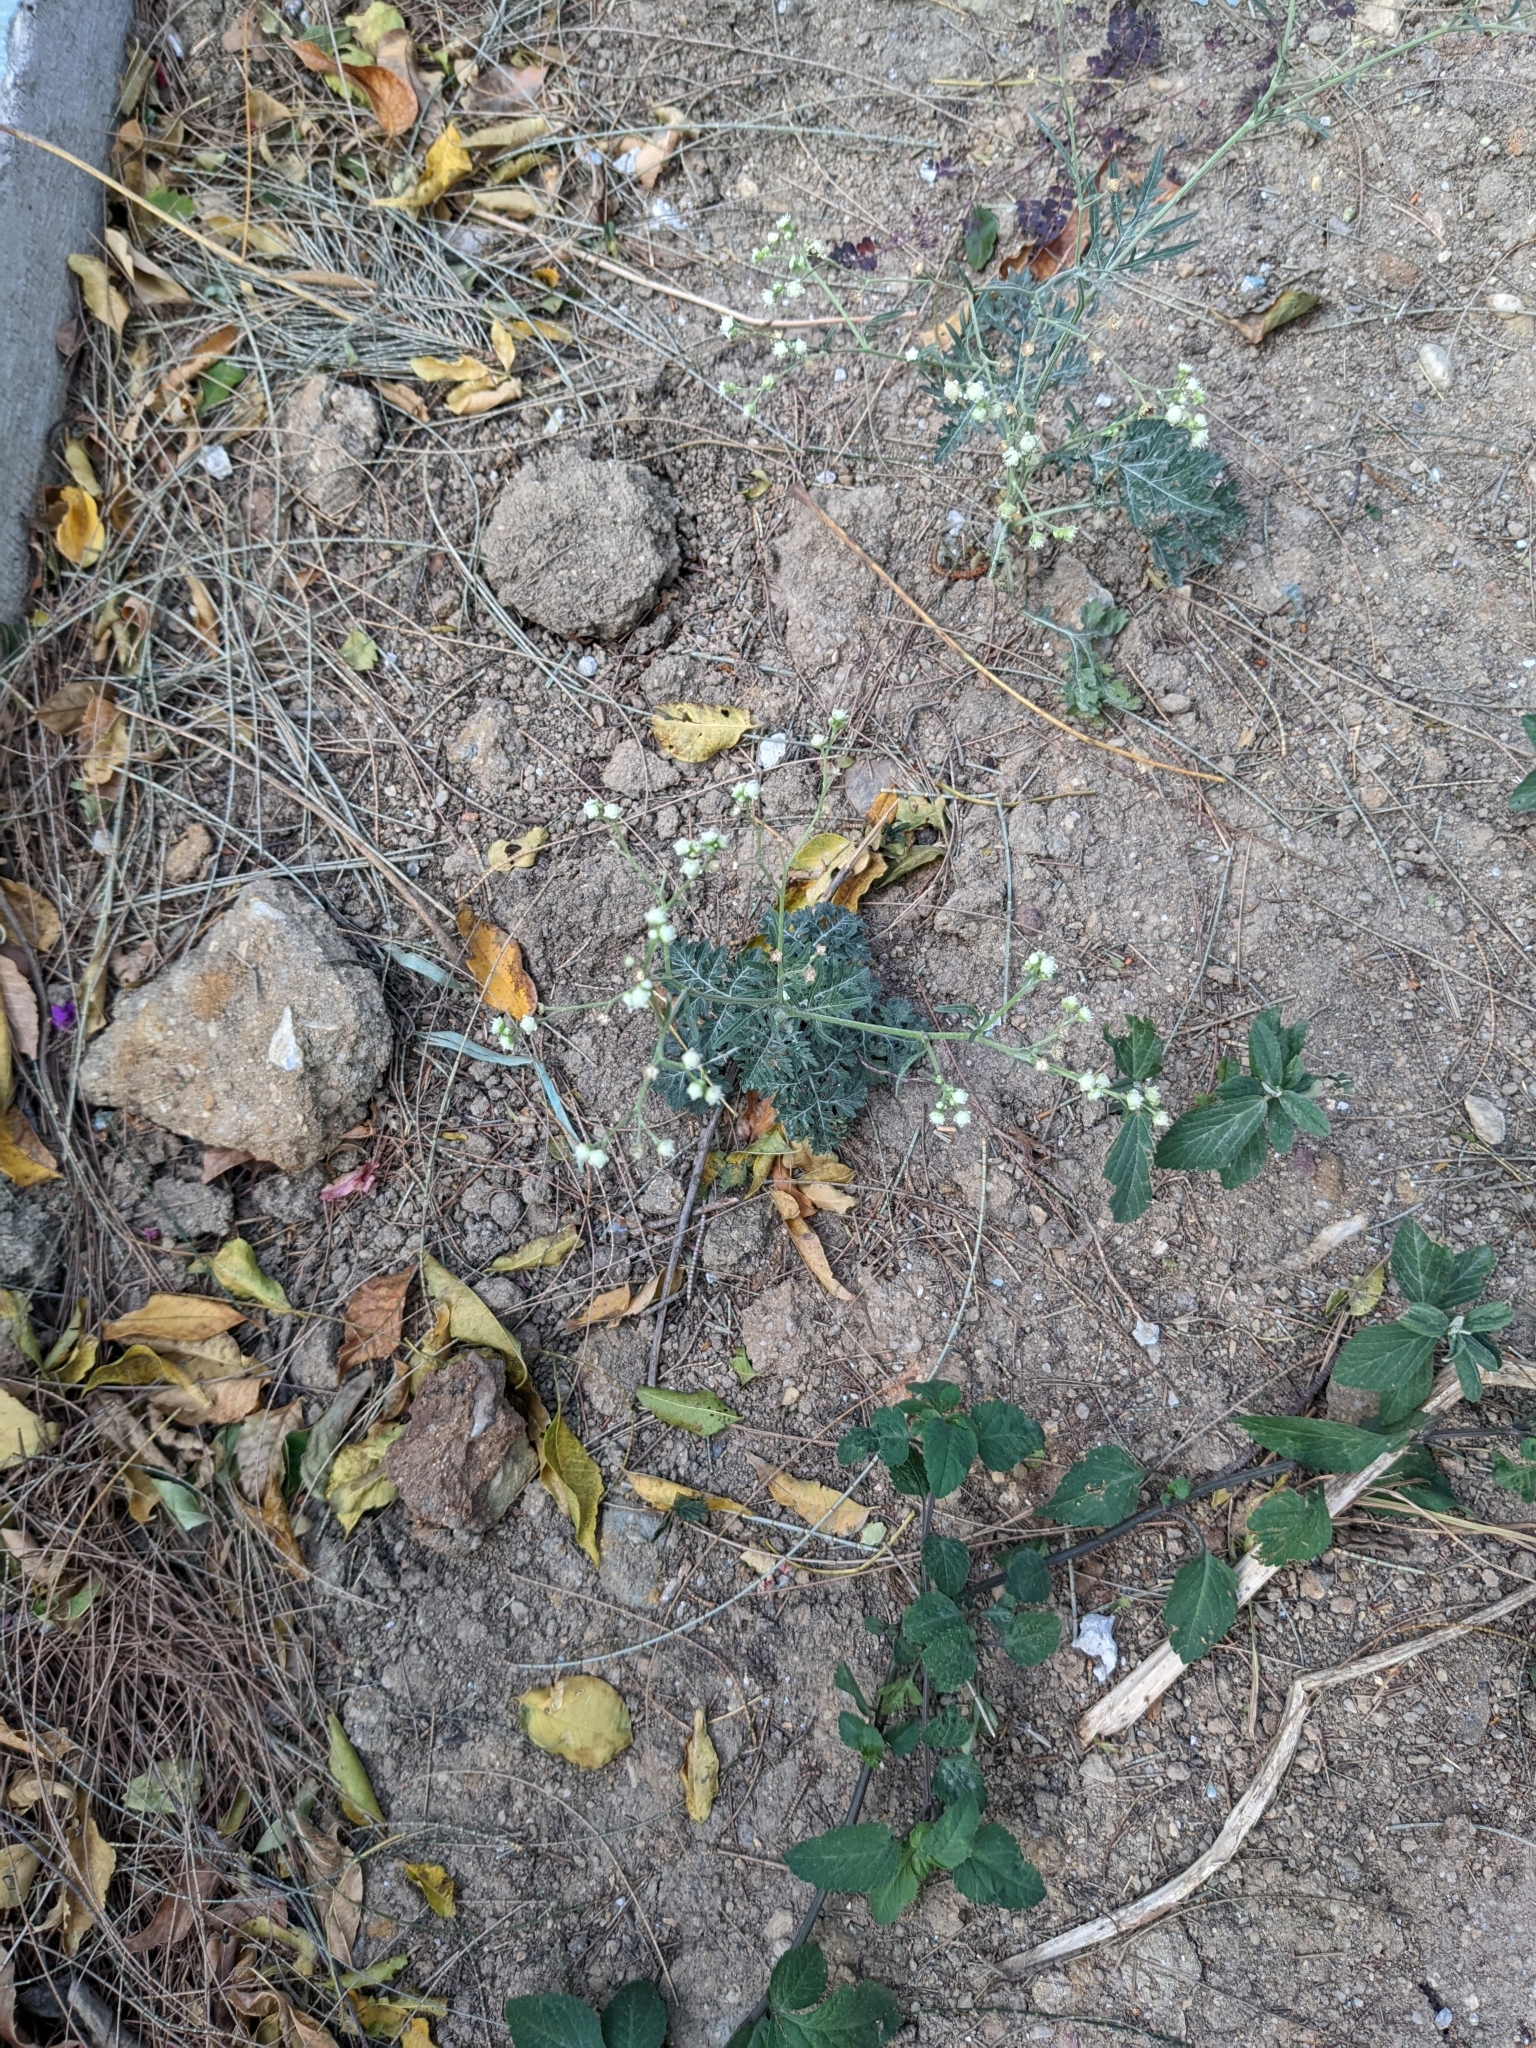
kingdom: Plantae
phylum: Tracheophyta
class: Magnoliopsida
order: Asterales
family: Asteraceae
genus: Parthenium
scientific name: Parthenium hysterophorus
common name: Santa maria feverfew
